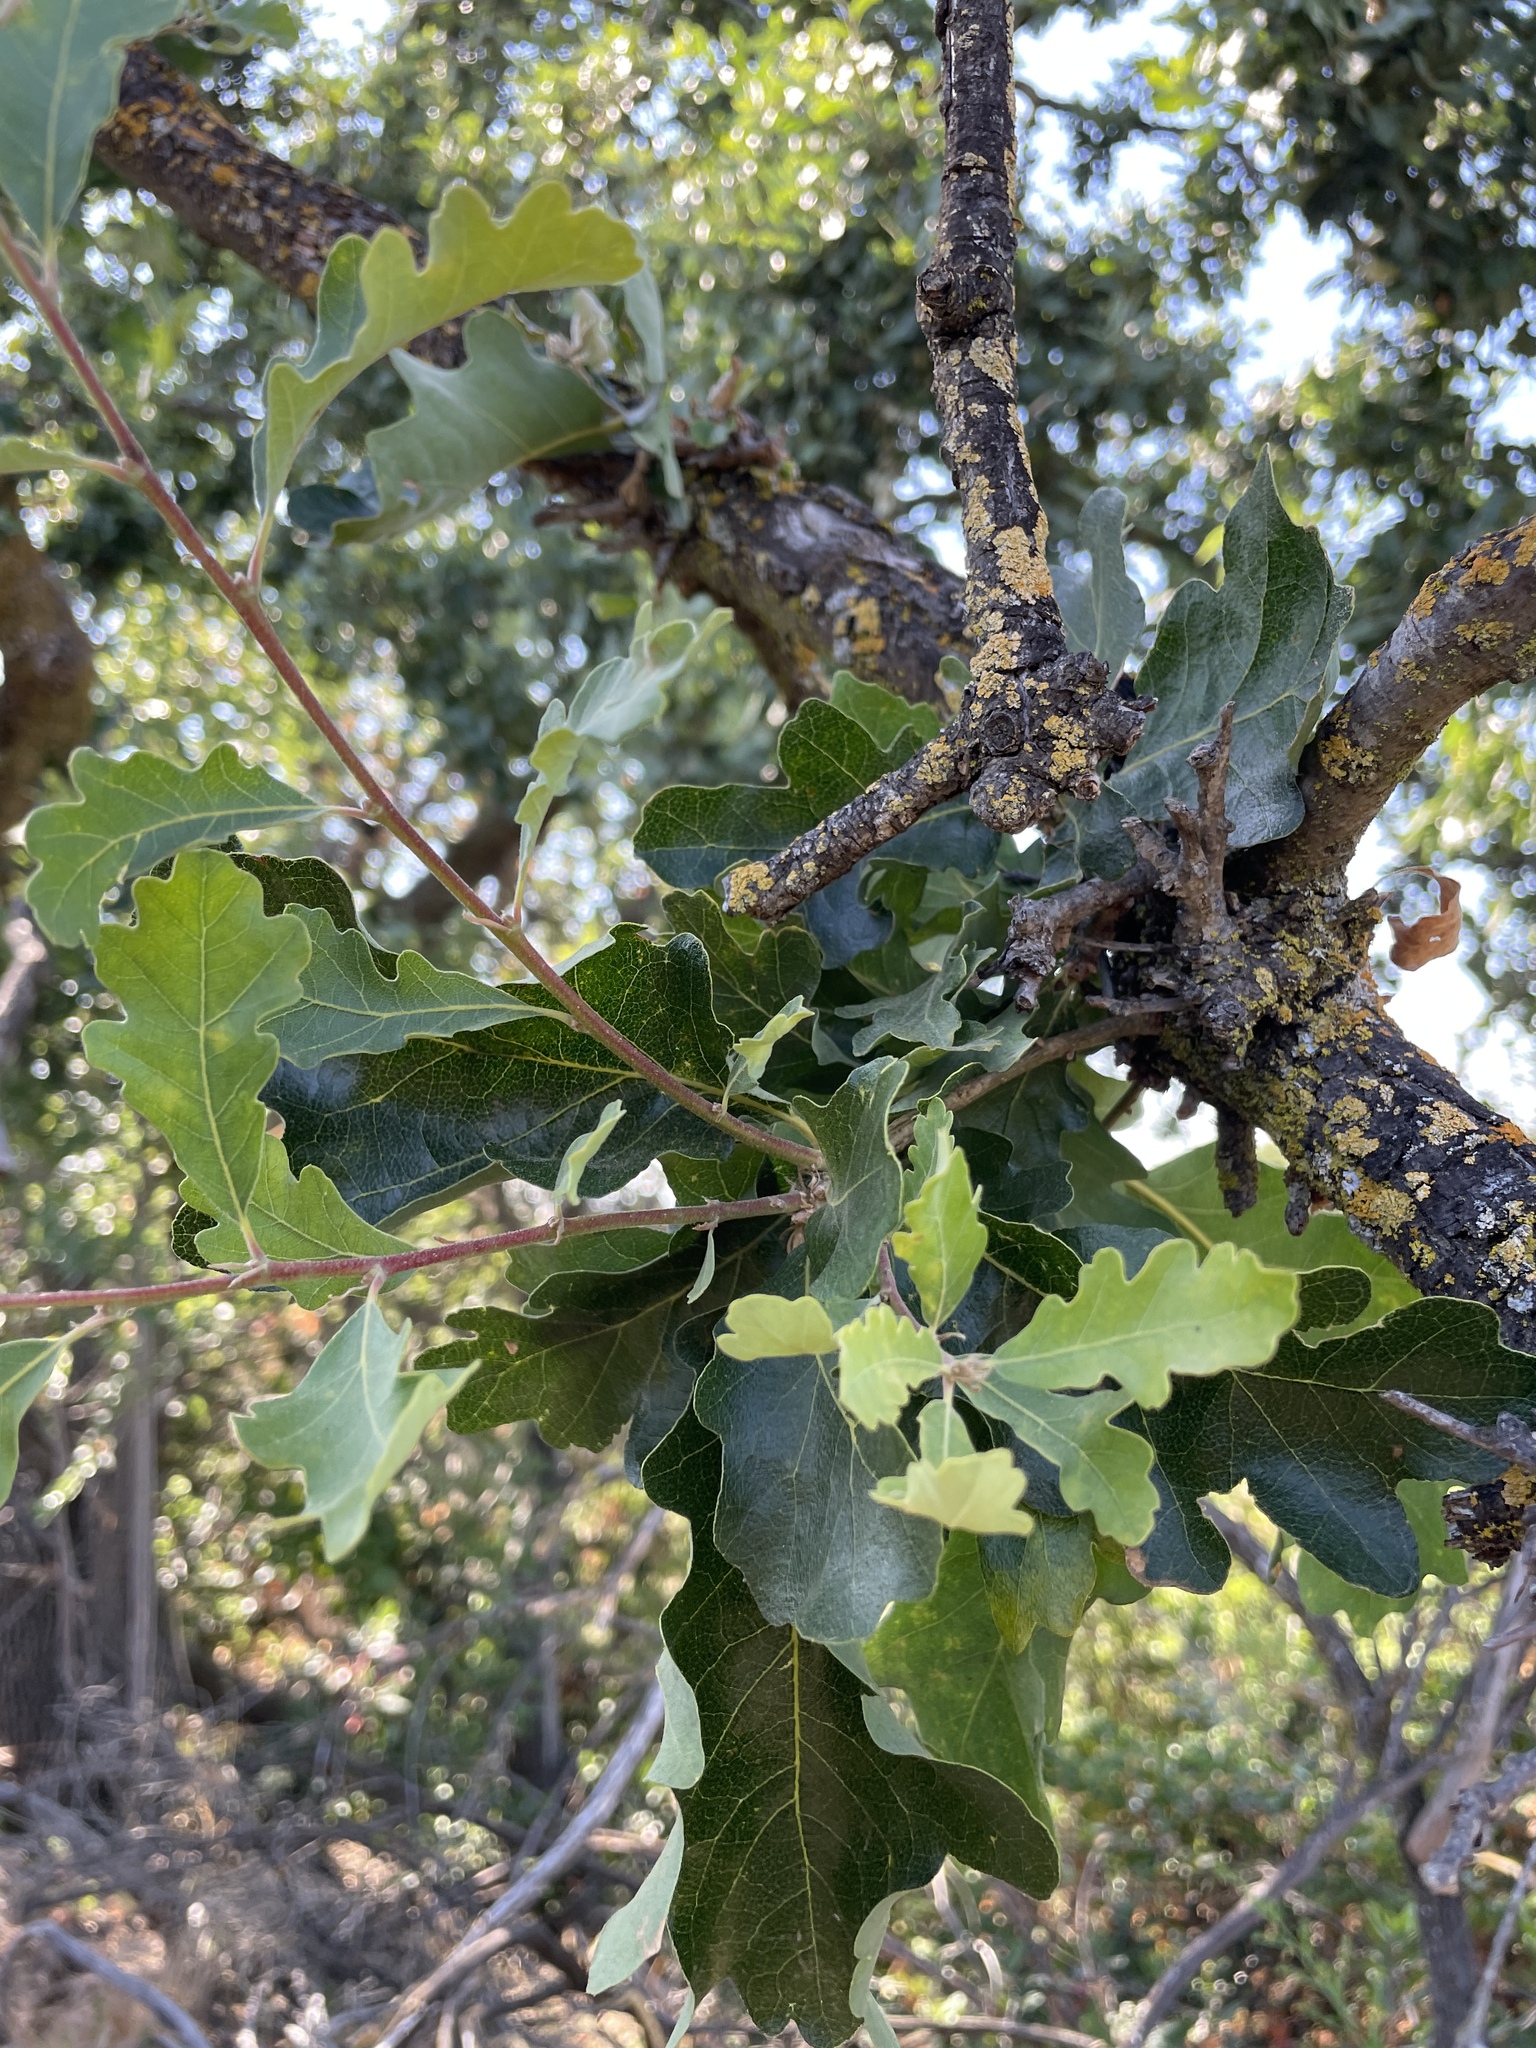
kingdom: Plantae
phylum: Tracheophyta
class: Magnoliopsida
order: Fagales
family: Fagaceae
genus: Quercus
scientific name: Quercus lobata
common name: Valley oak
